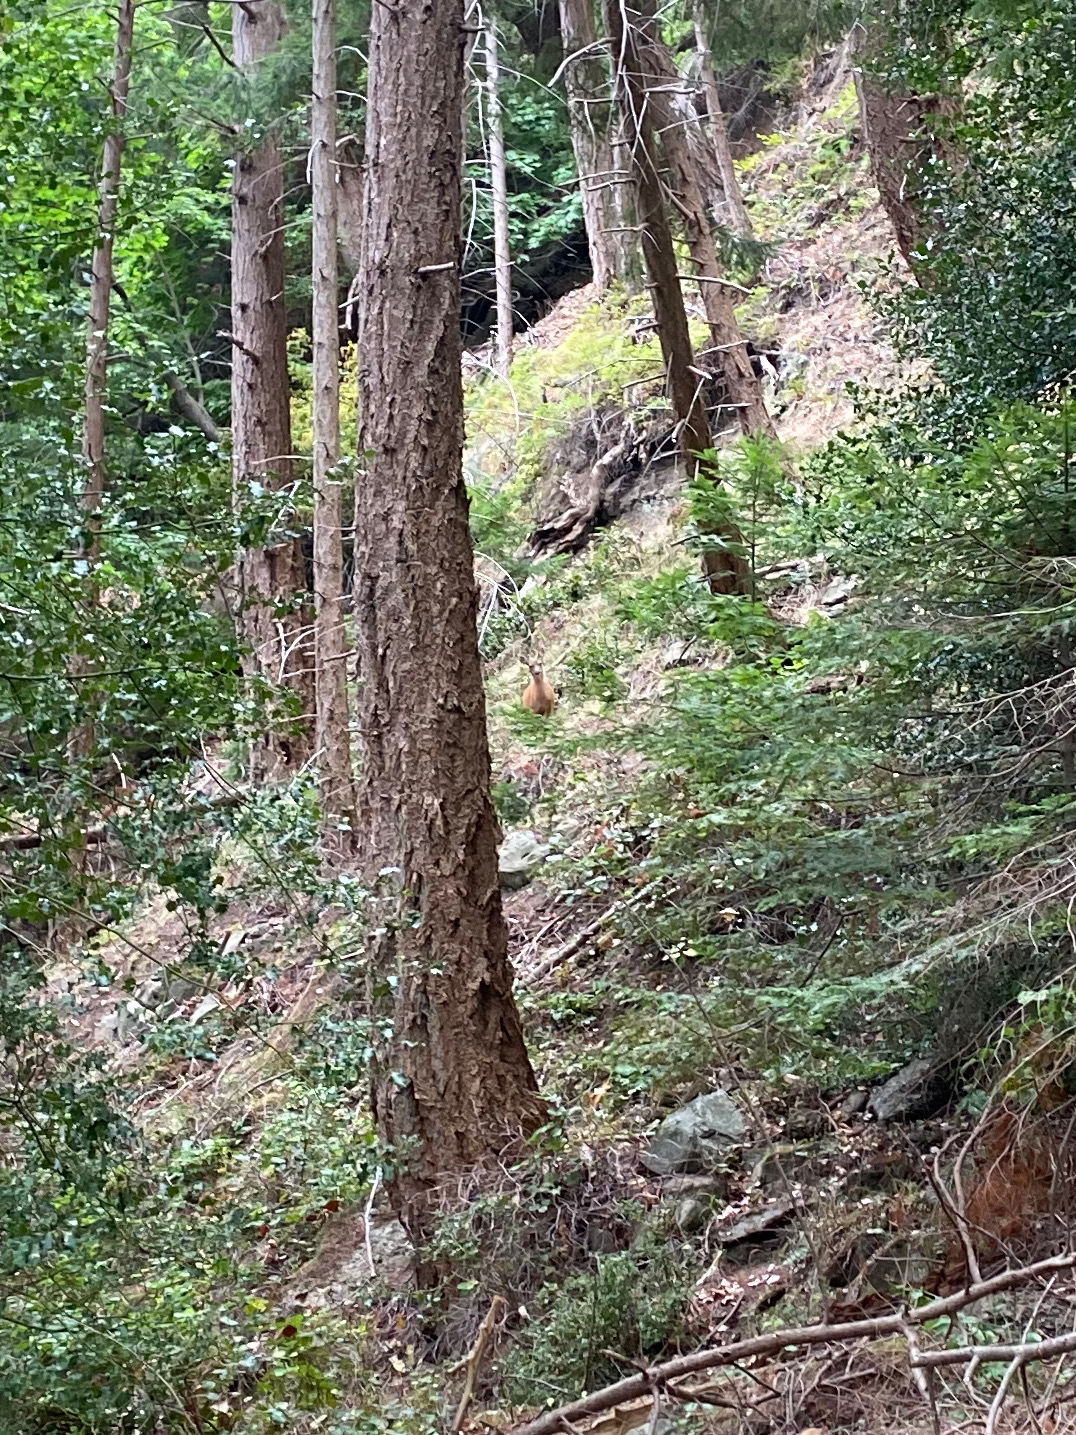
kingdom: Animalia
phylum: Chordata
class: Mammalia
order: Artiodactyla
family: Cervidae
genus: Odocoileus
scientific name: Odocoileus hemionus
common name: Mule deer
